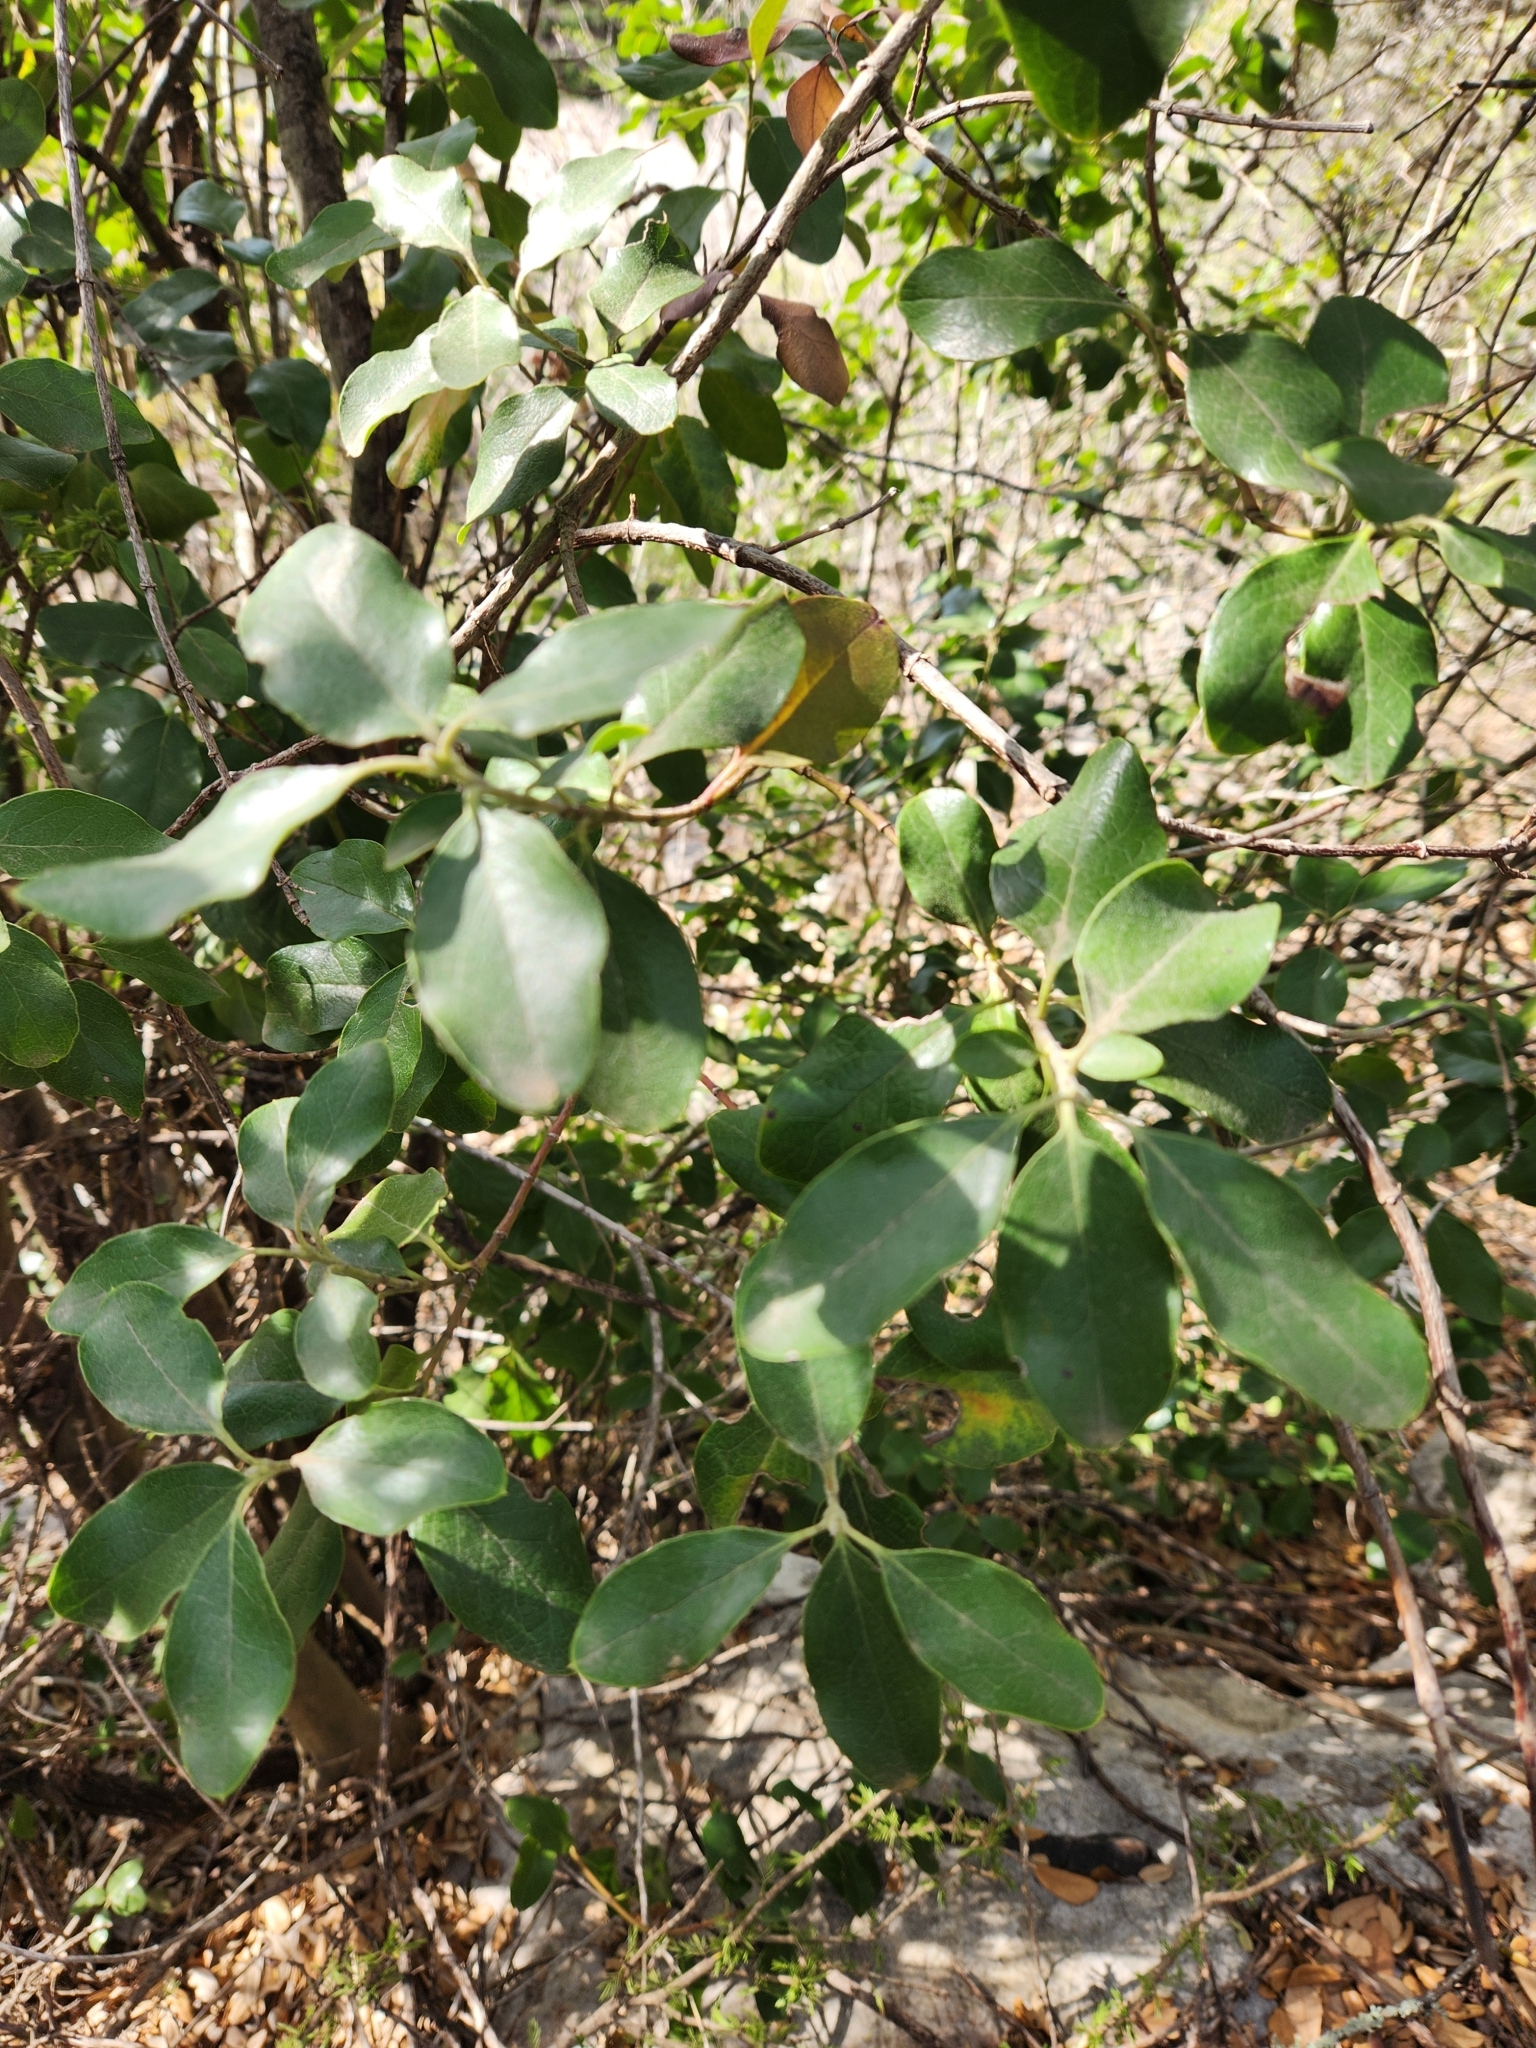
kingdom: Plantae
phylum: Tracheophyta
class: Magnoliopsida
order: Garryales
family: Garryaceae
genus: Garrya
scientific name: Garrya lindheimeri
